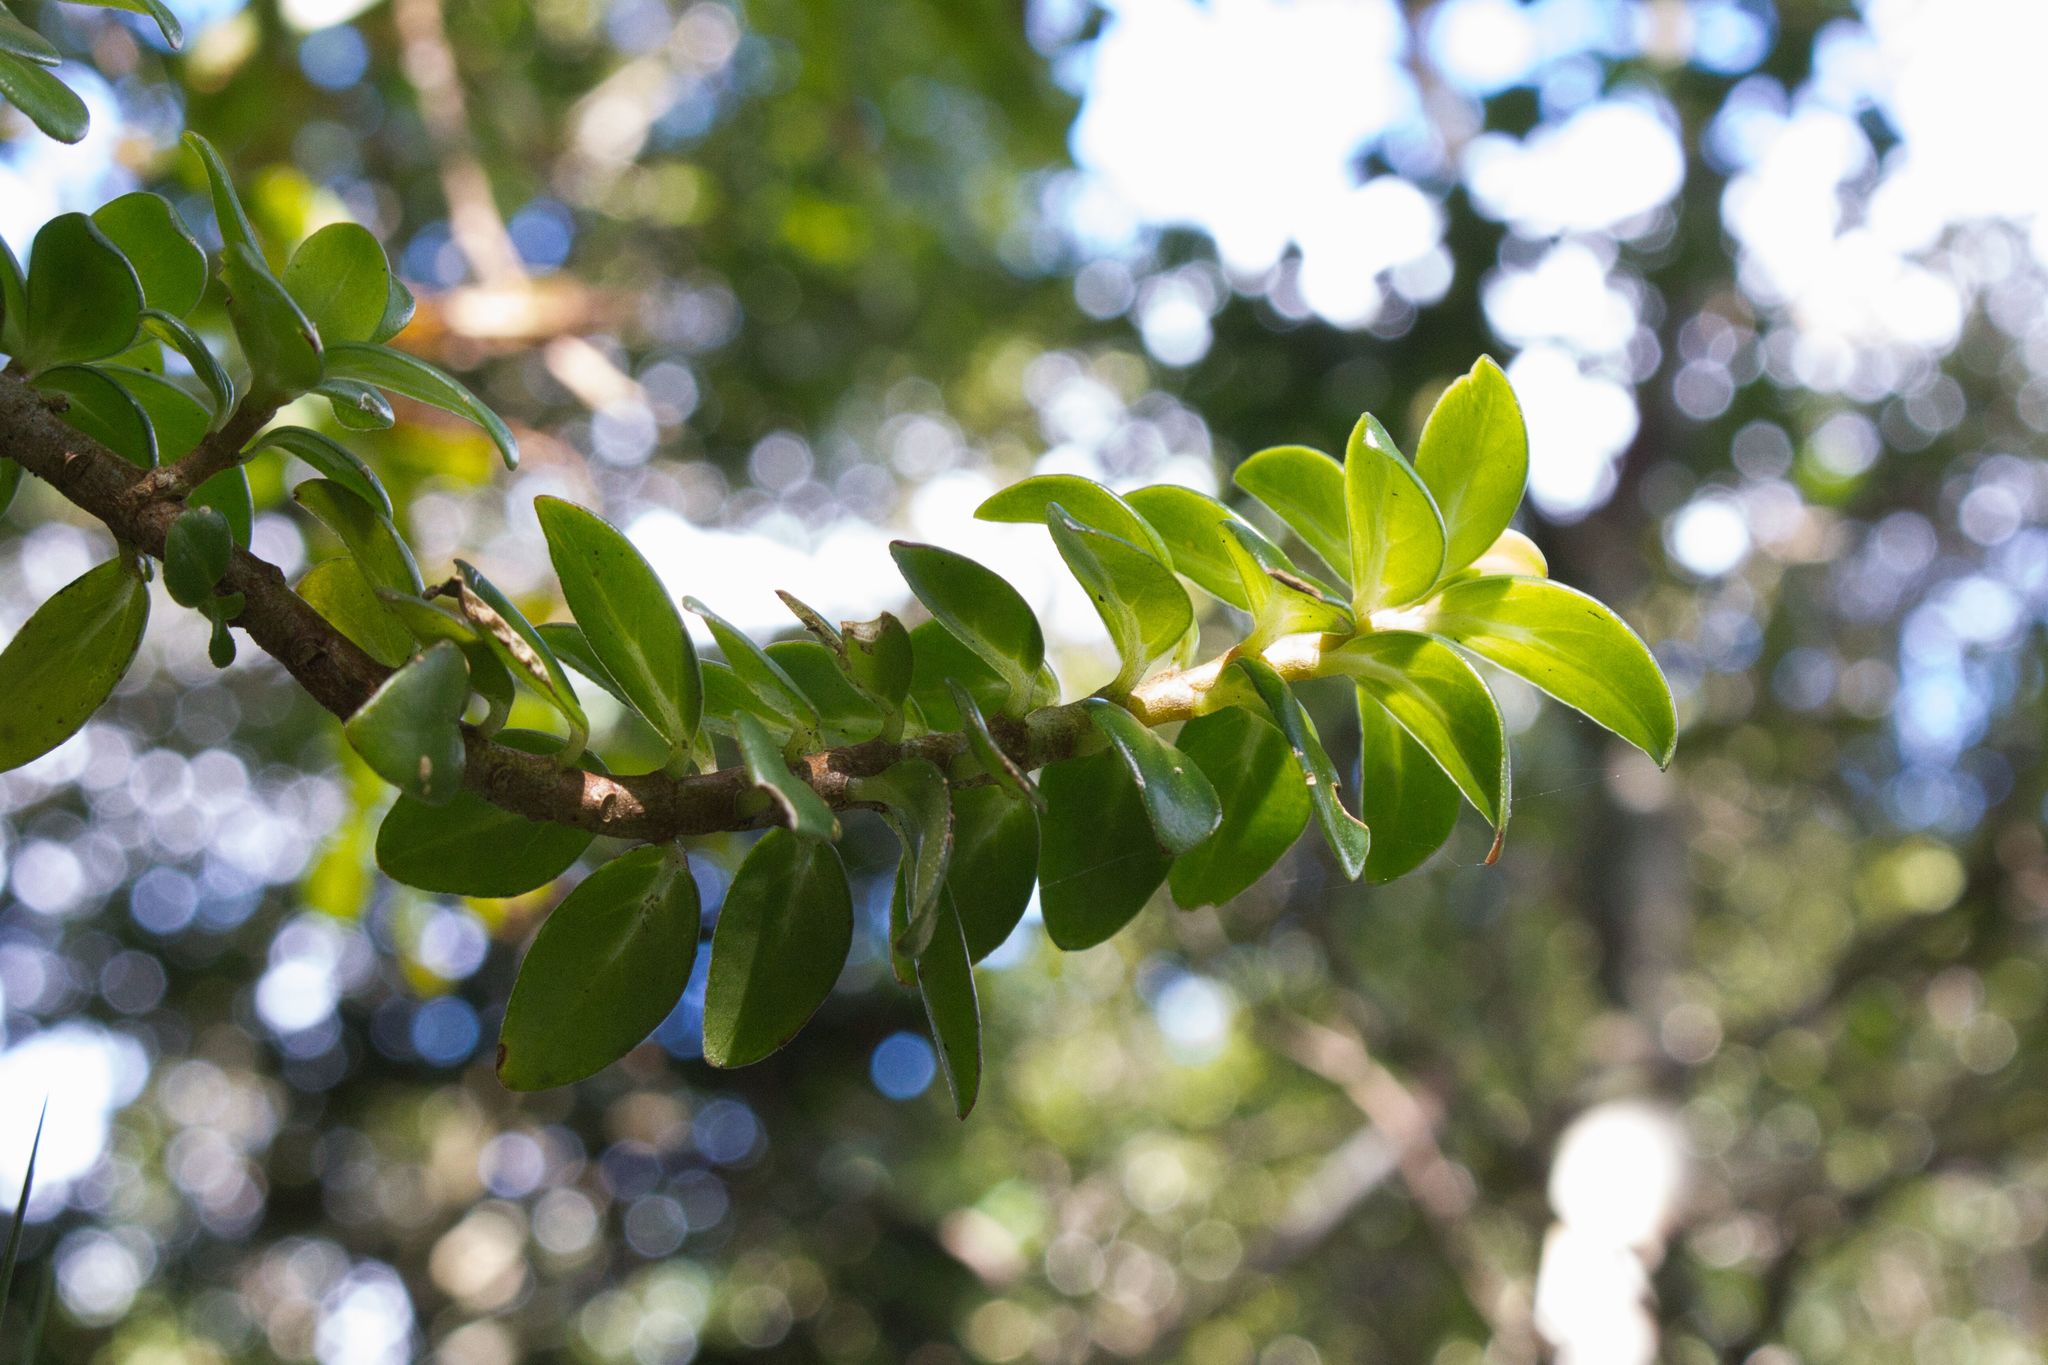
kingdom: Plantae
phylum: Tracheophyta
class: Magnoliopsida
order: Lamiales
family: Gesneriaceae
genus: Columnea
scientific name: Columnea glabra
